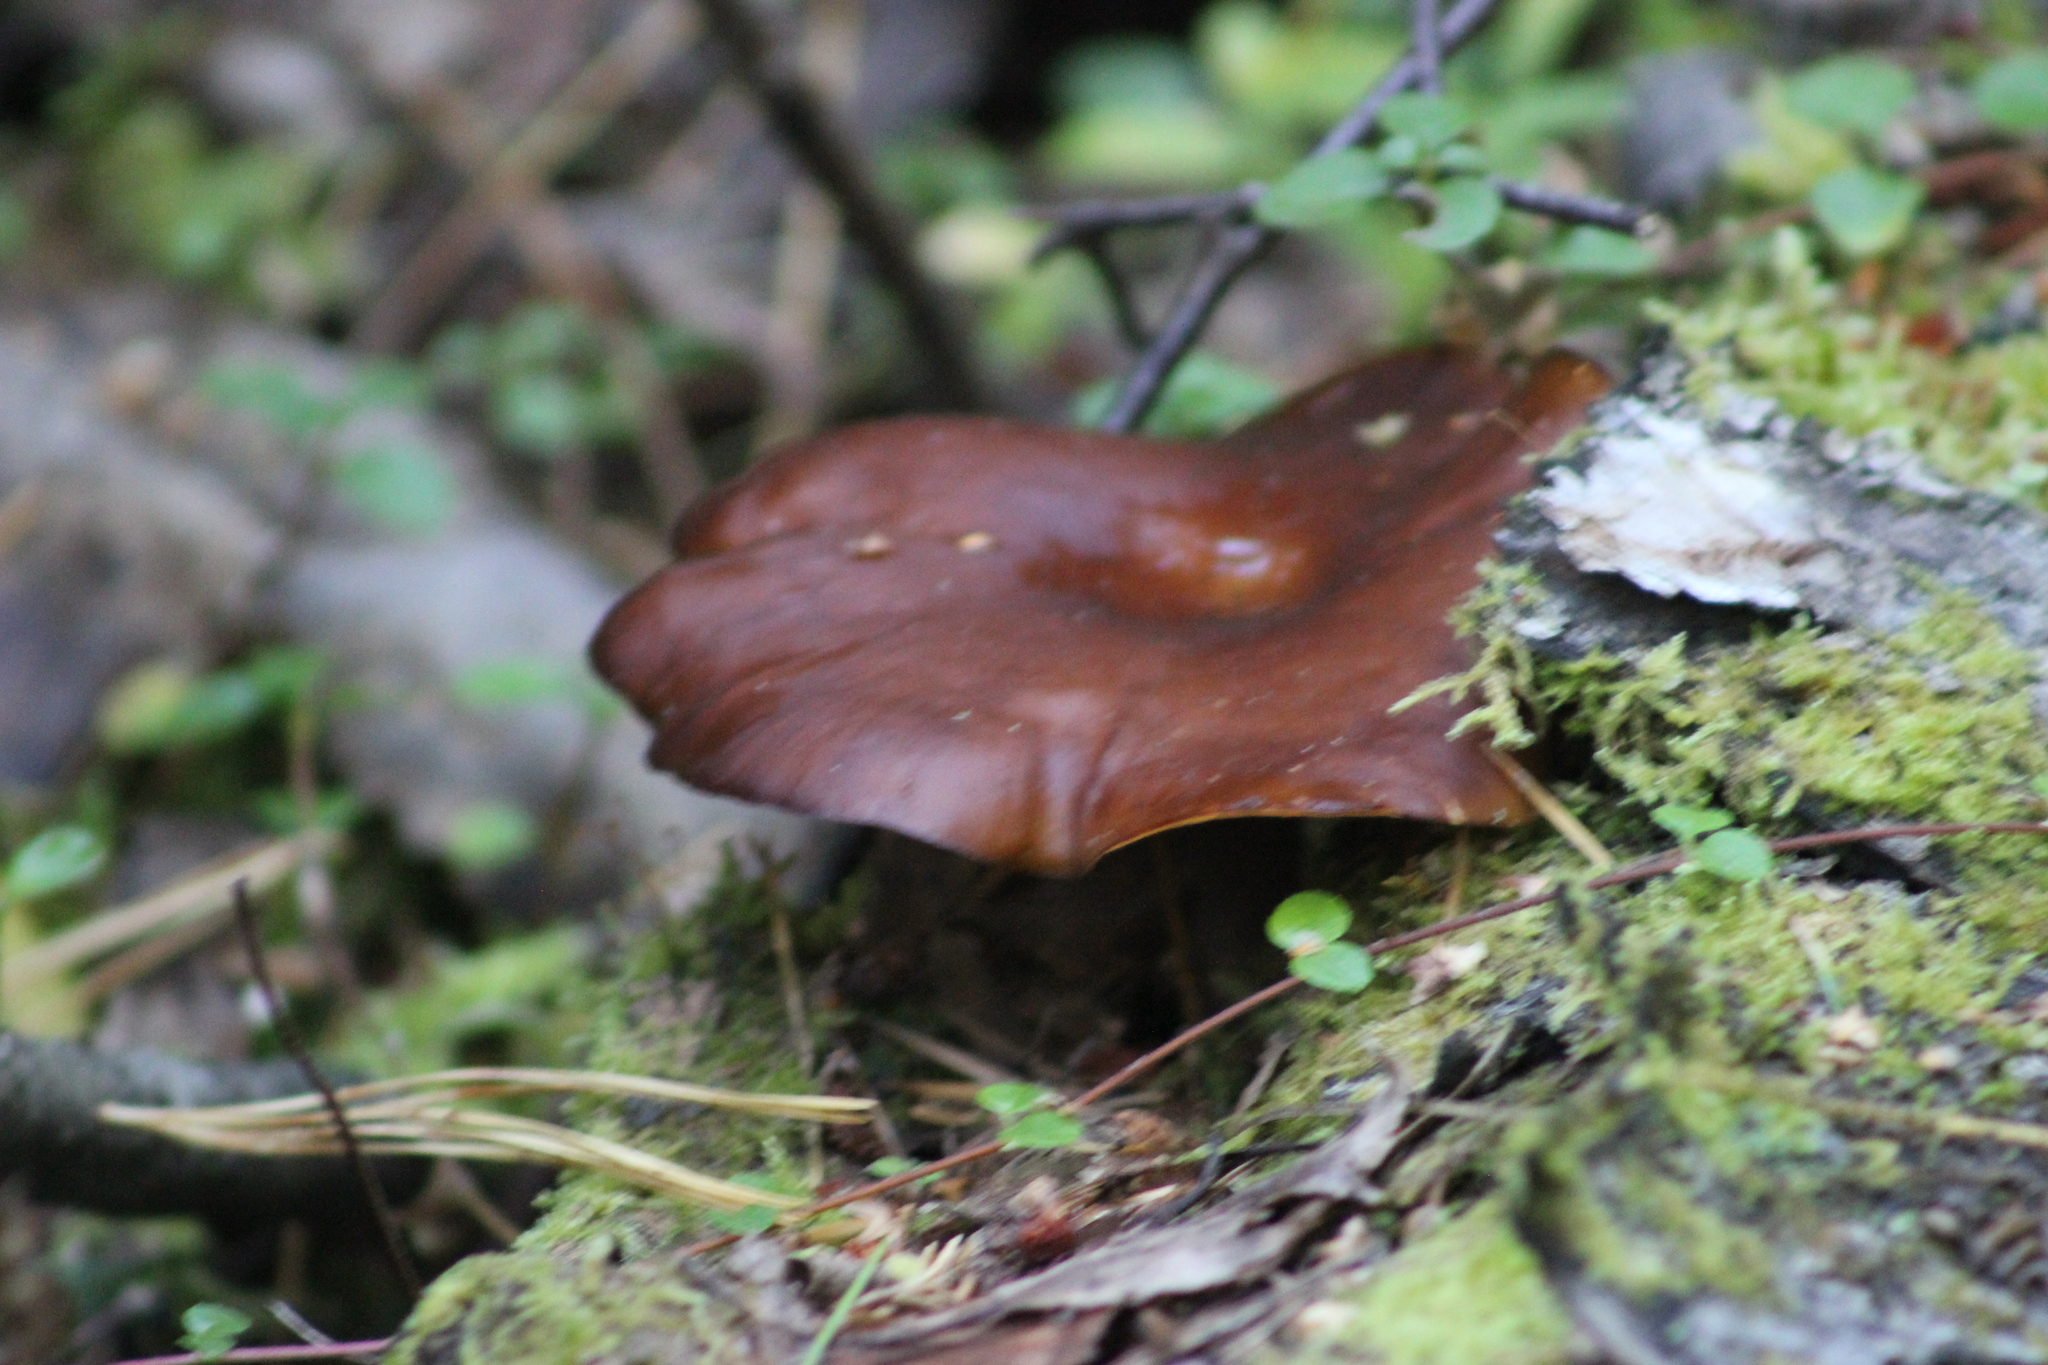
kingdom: Fungi
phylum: Basidiomycota
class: Agaricomycetes
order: Polyporales
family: Polyporaceae
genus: Picipes
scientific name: Picipes badius
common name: Bay polypore
